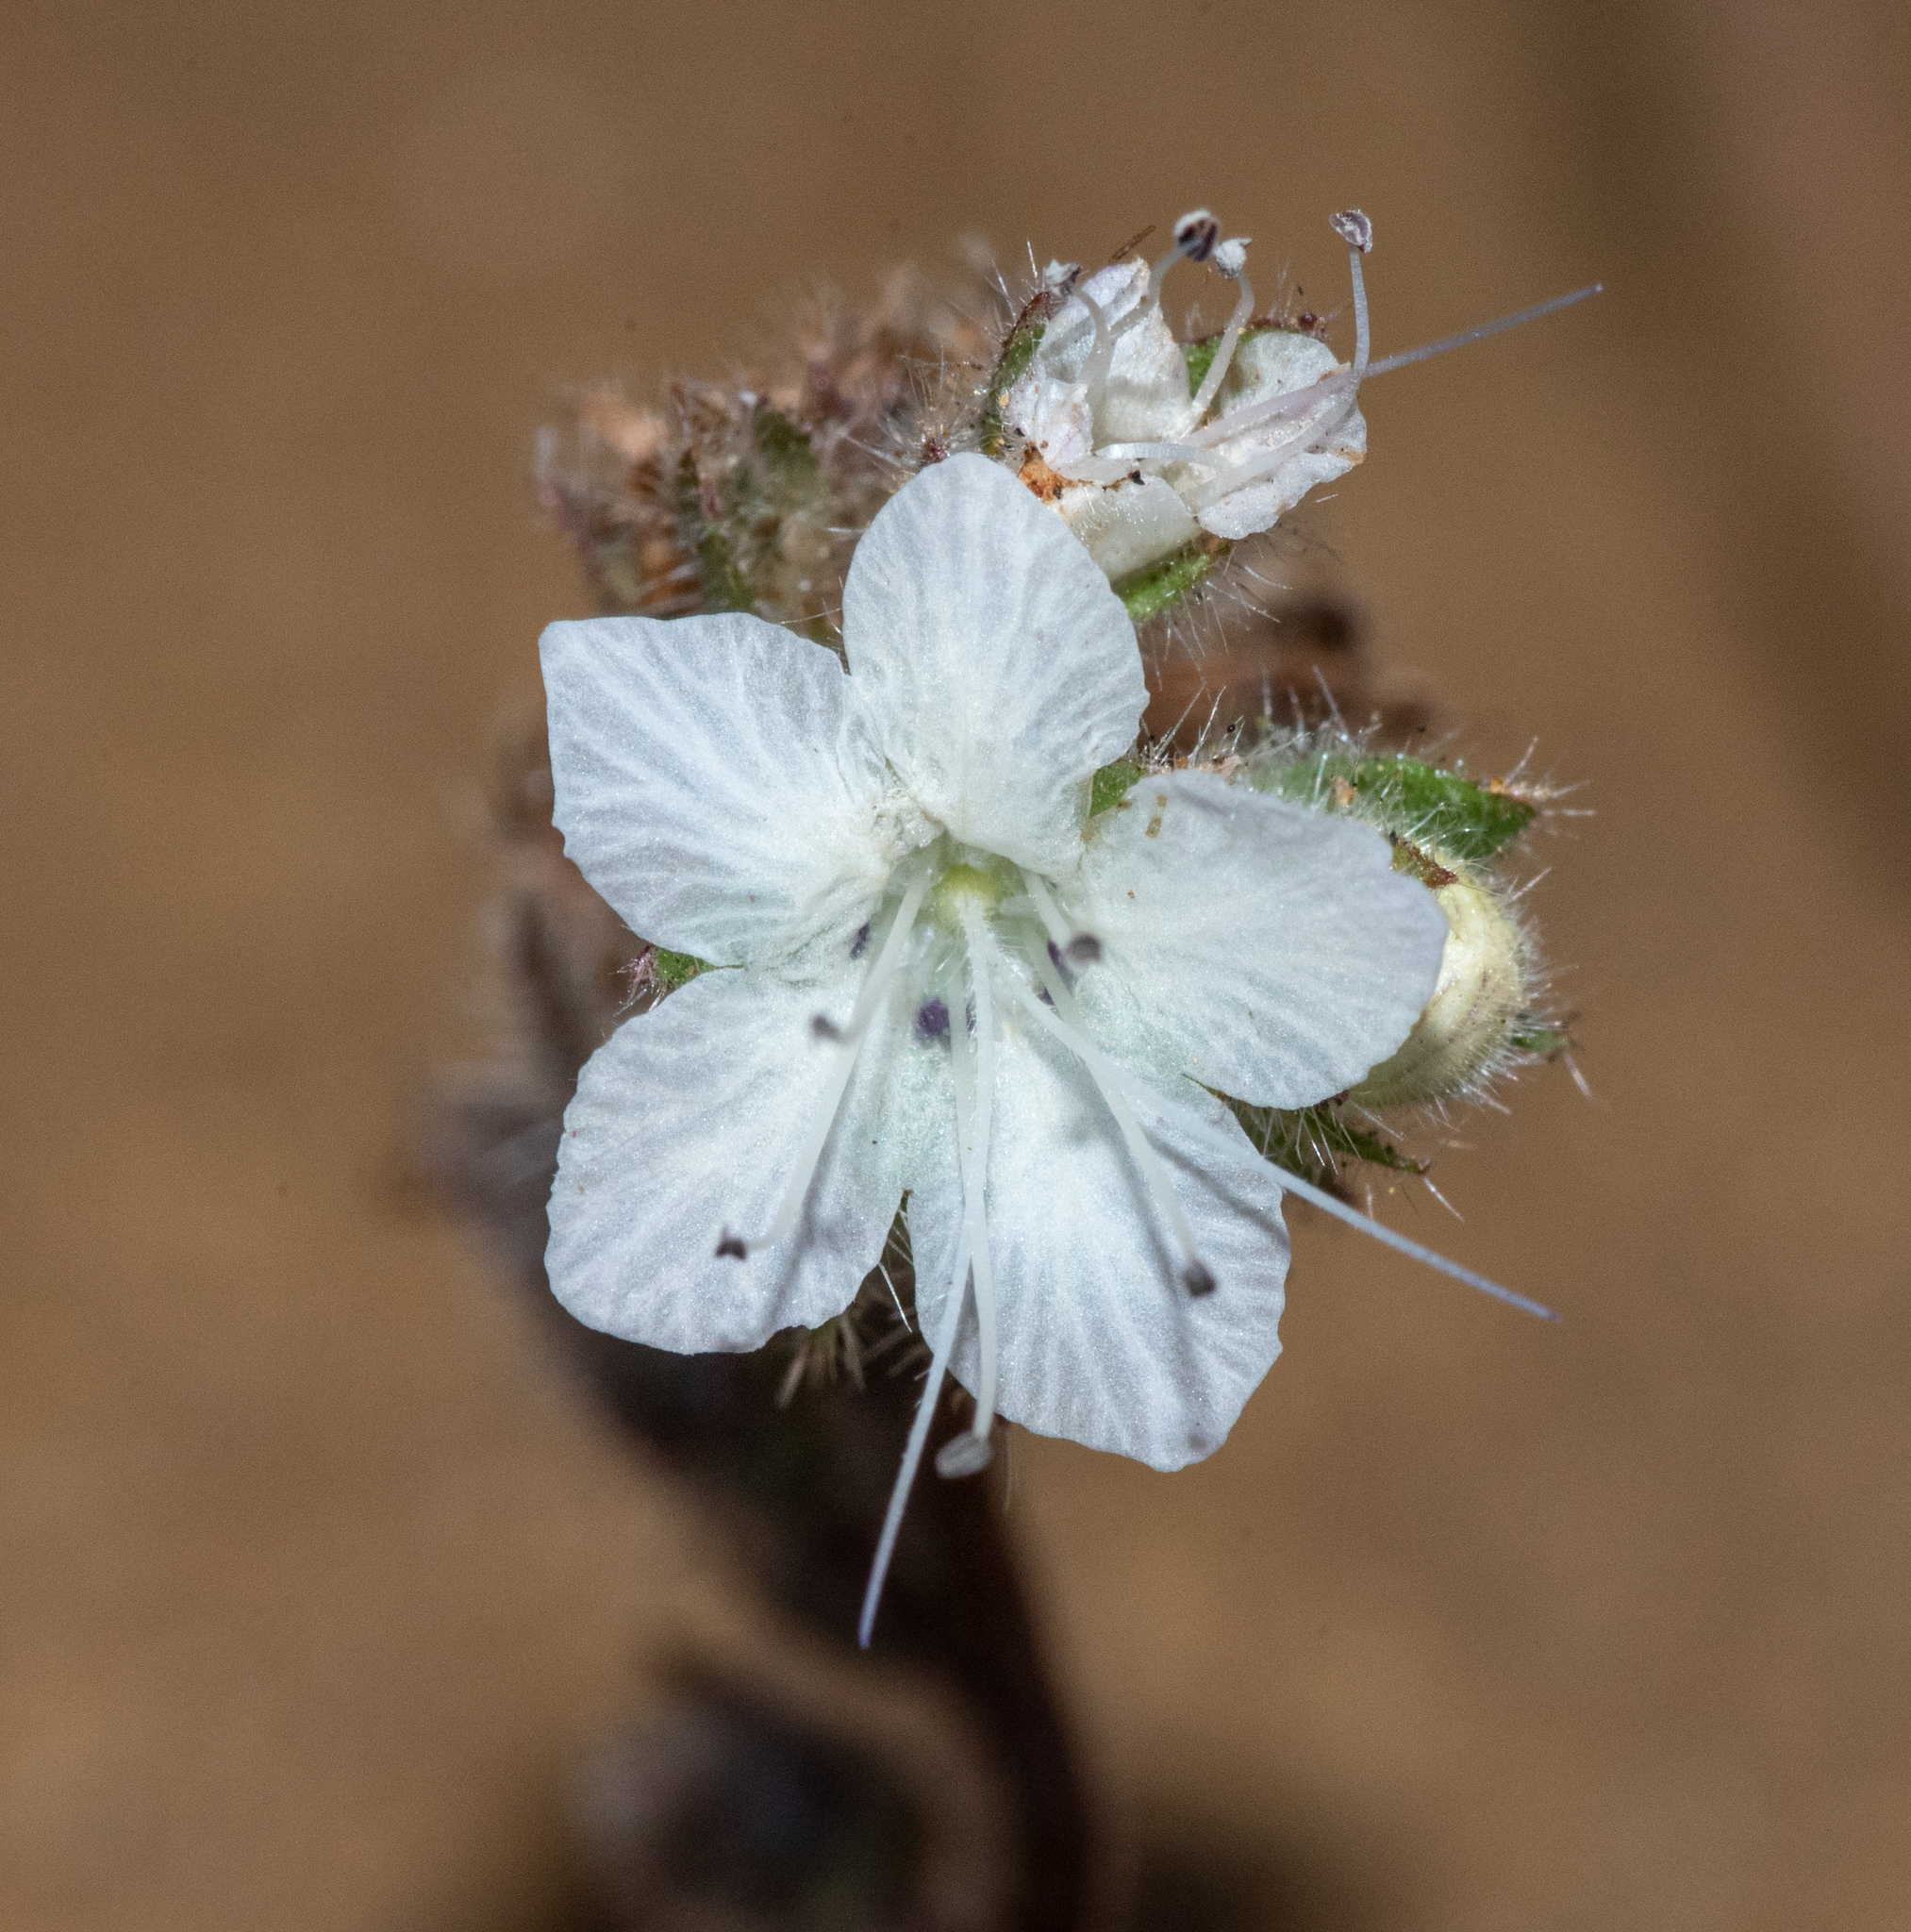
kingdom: Plantae
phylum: Tracheophyta
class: Magnoliopsida
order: Boraginales
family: Hydrophyllaceae
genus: Phacelia
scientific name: Phacelia distans
